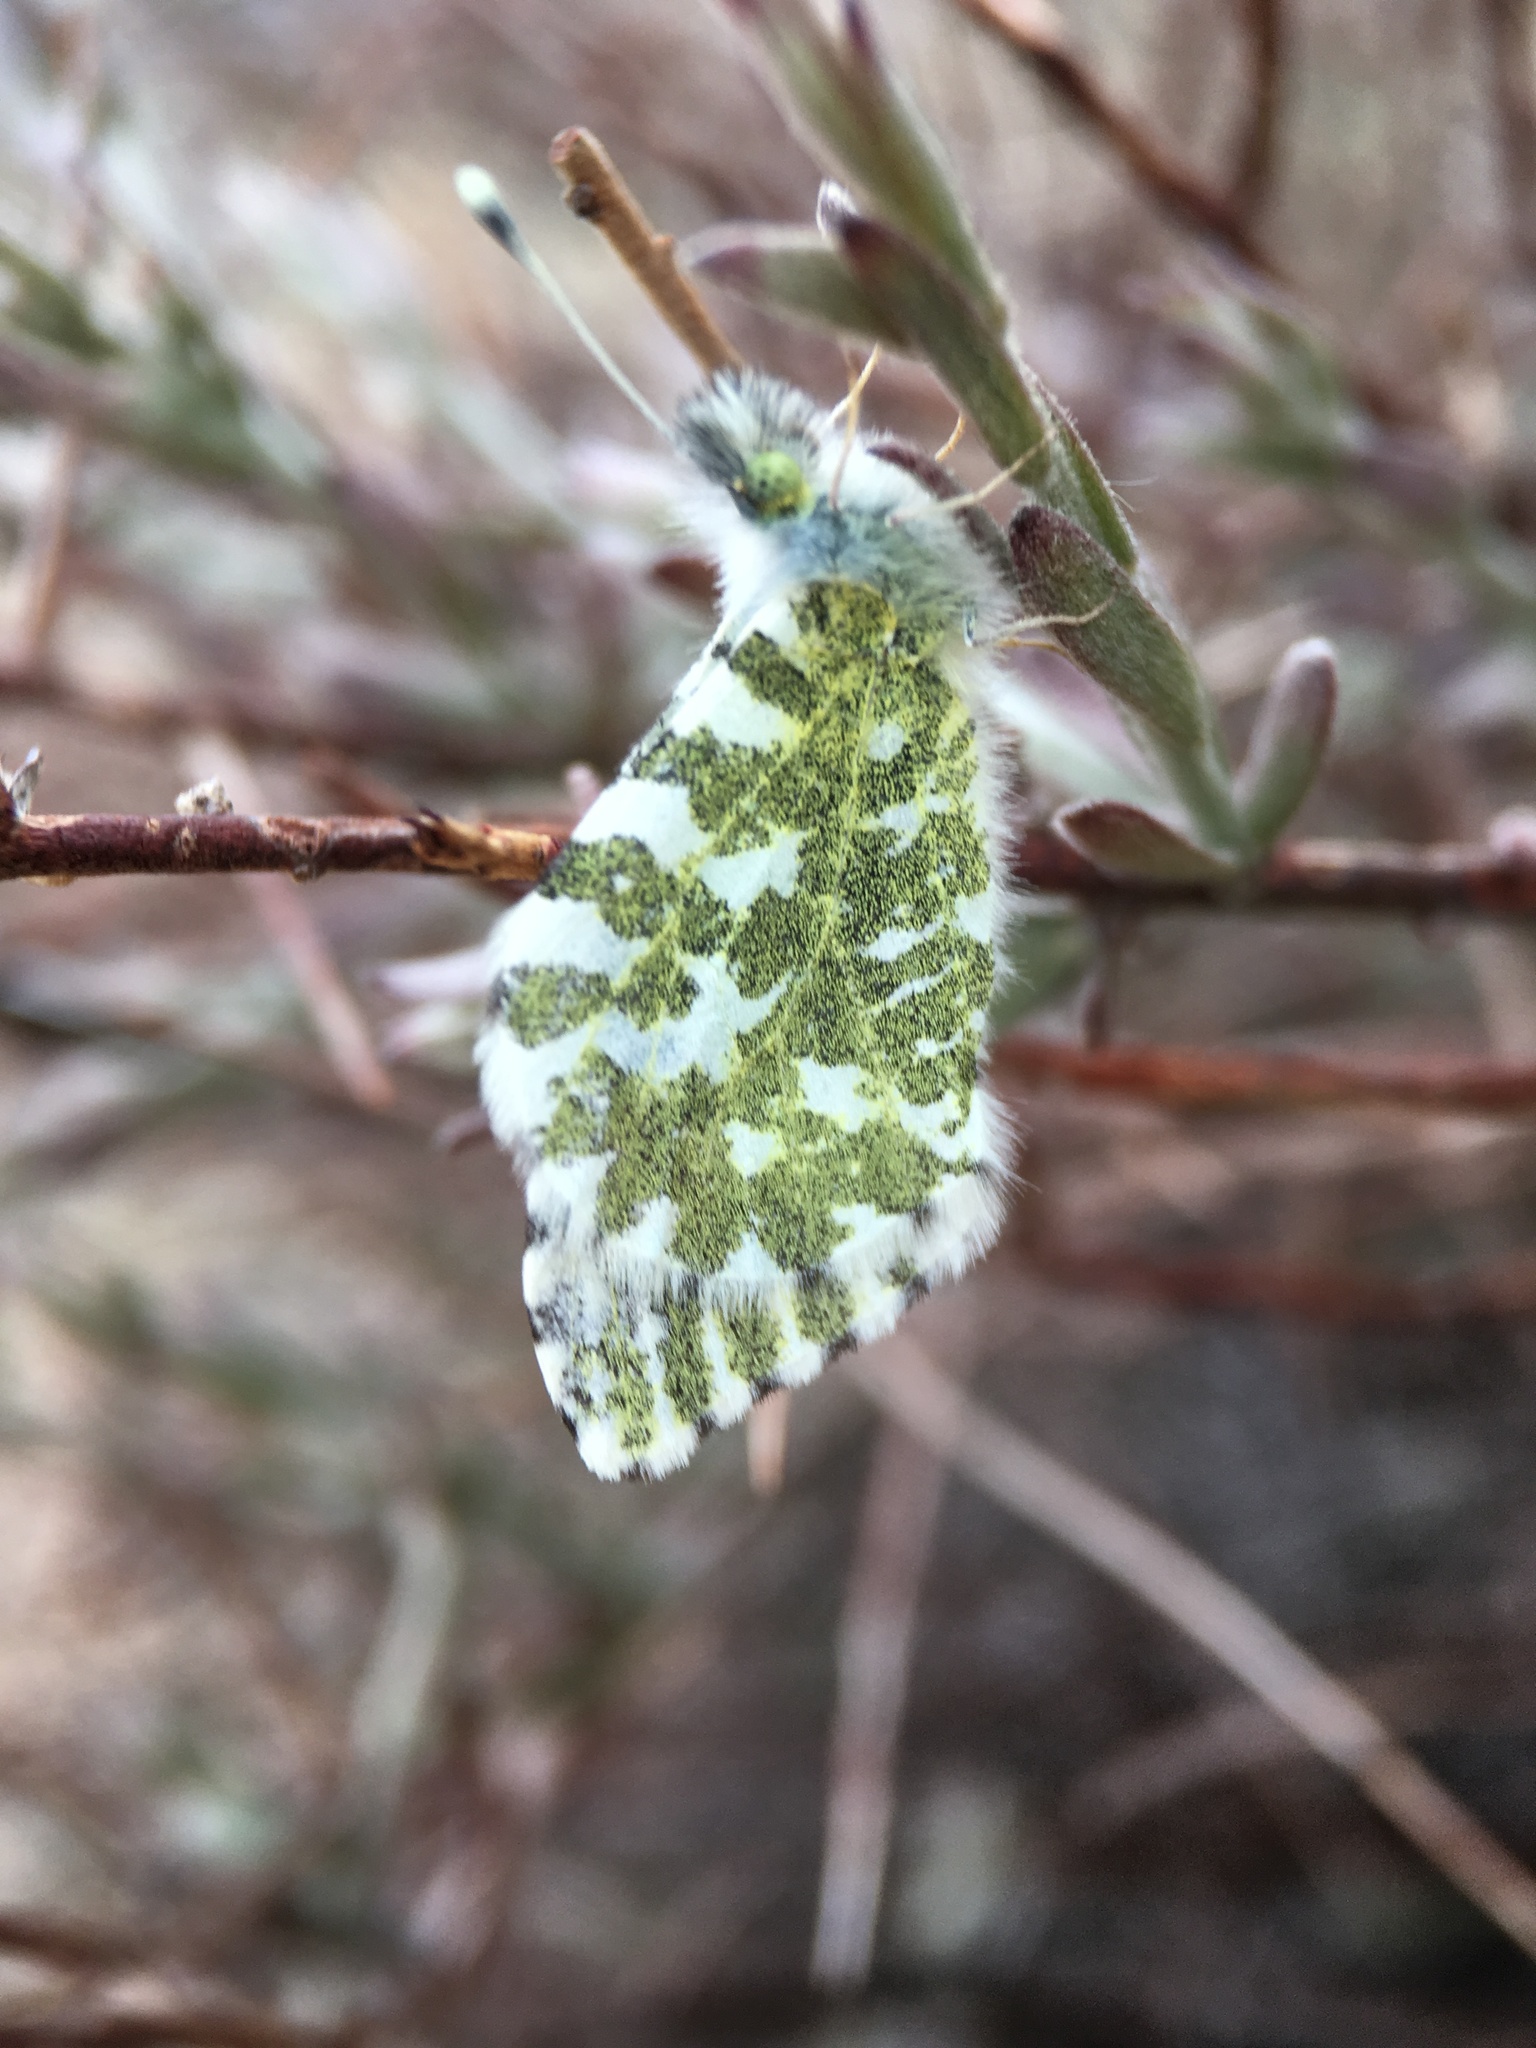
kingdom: Animalia
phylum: Arthropoda
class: Insecta
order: Lepidoptera
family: Pieridae
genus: Euchloe
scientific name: Euchloe lotta
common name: Desert marble
